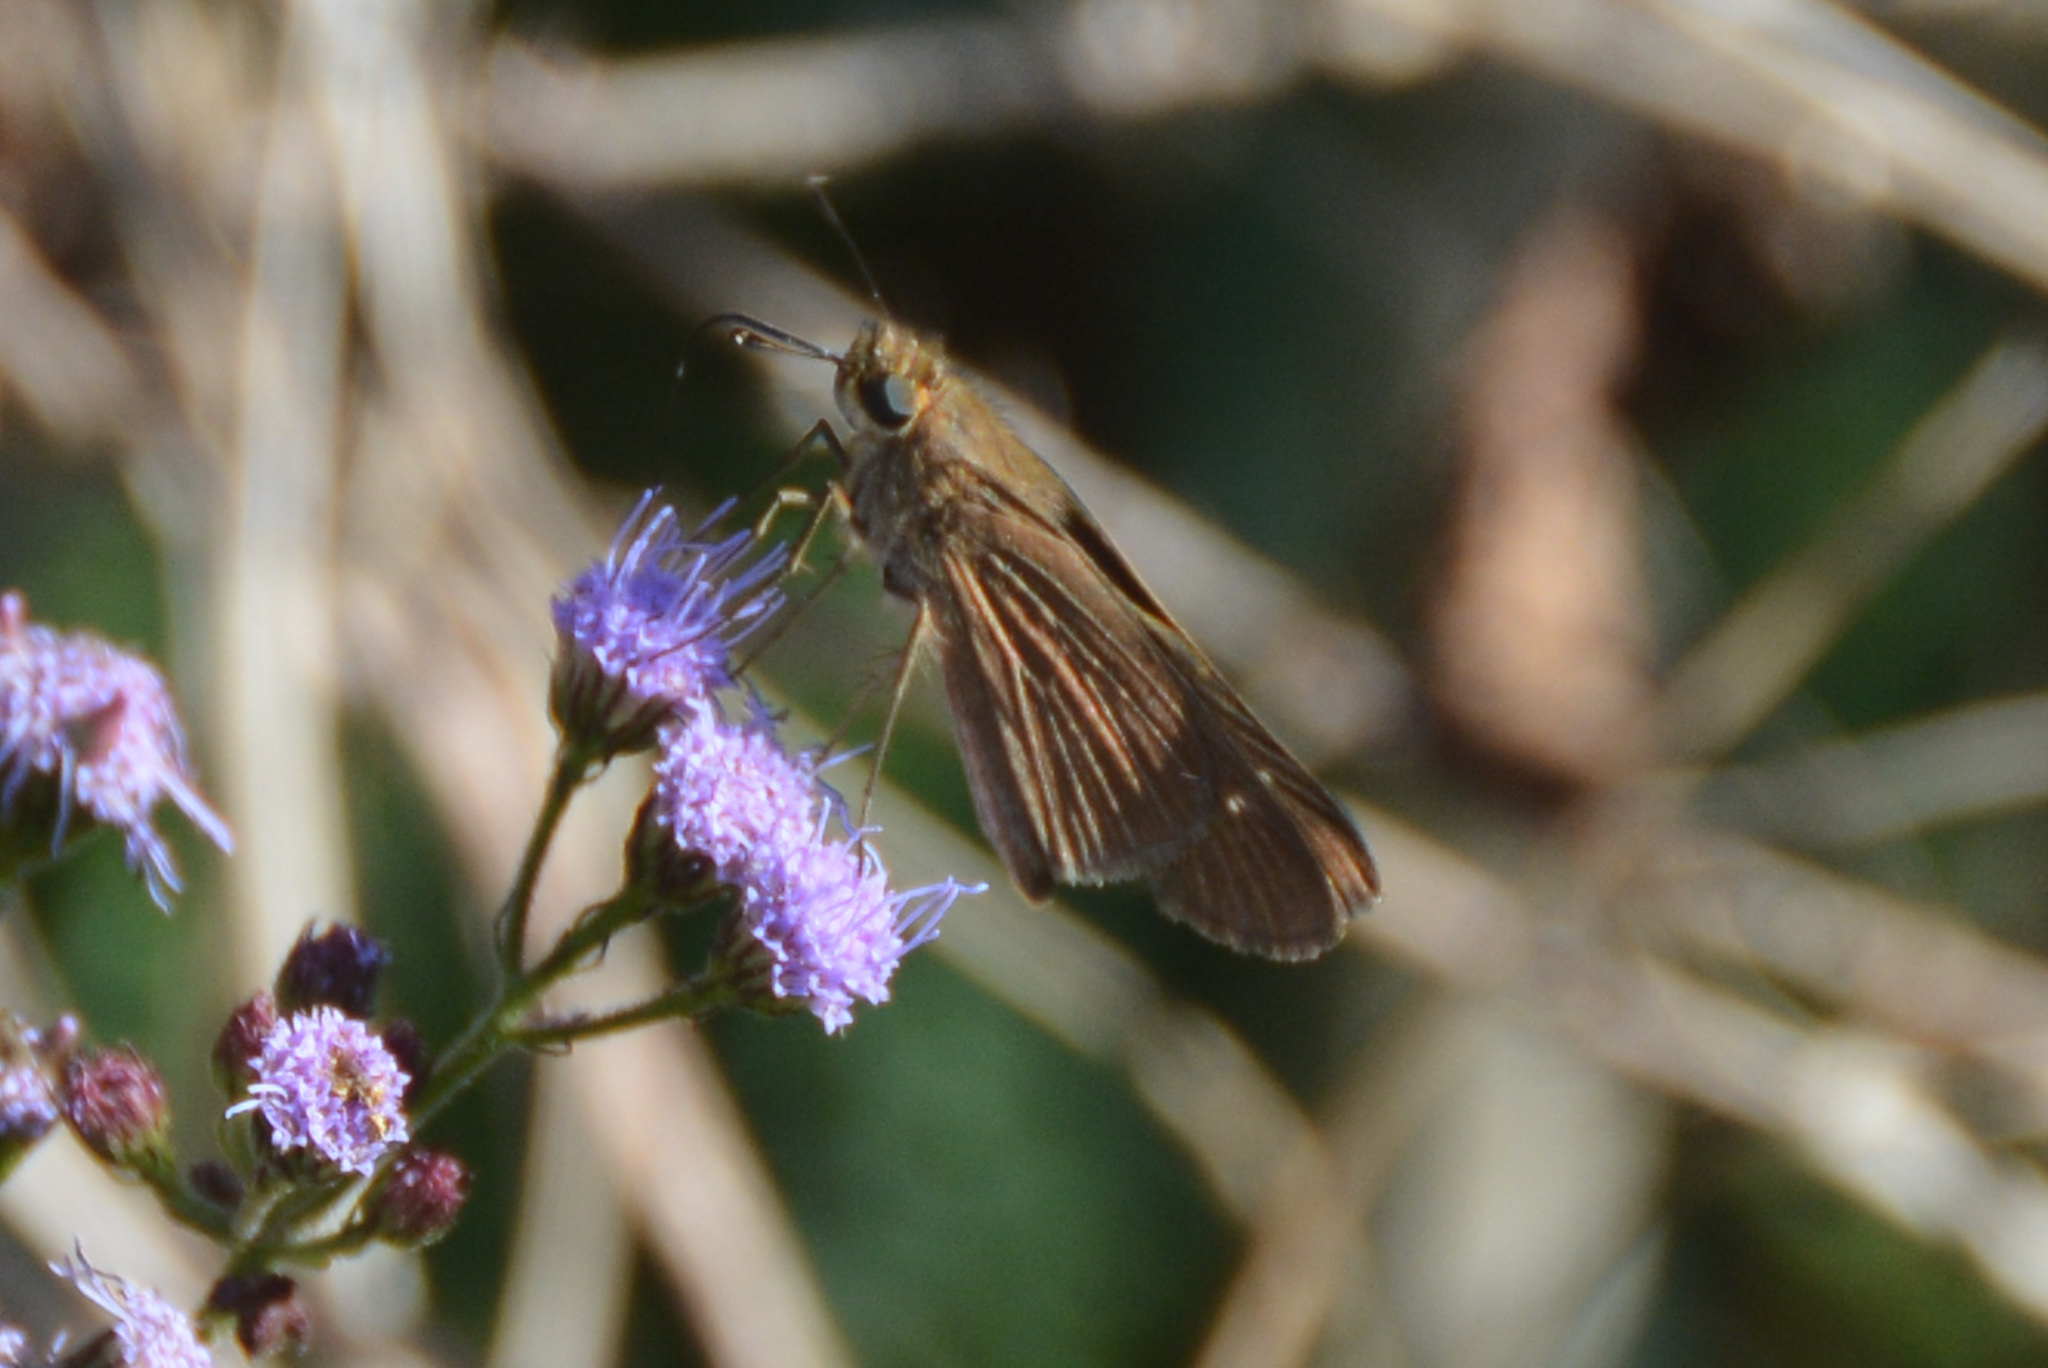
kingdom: Animalia
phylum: Arthropoda
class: Insecta
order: Lepidoptera
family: Hesperiidae
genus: Panoquina
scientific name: Panoquina ocola
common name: Ocola skipper
